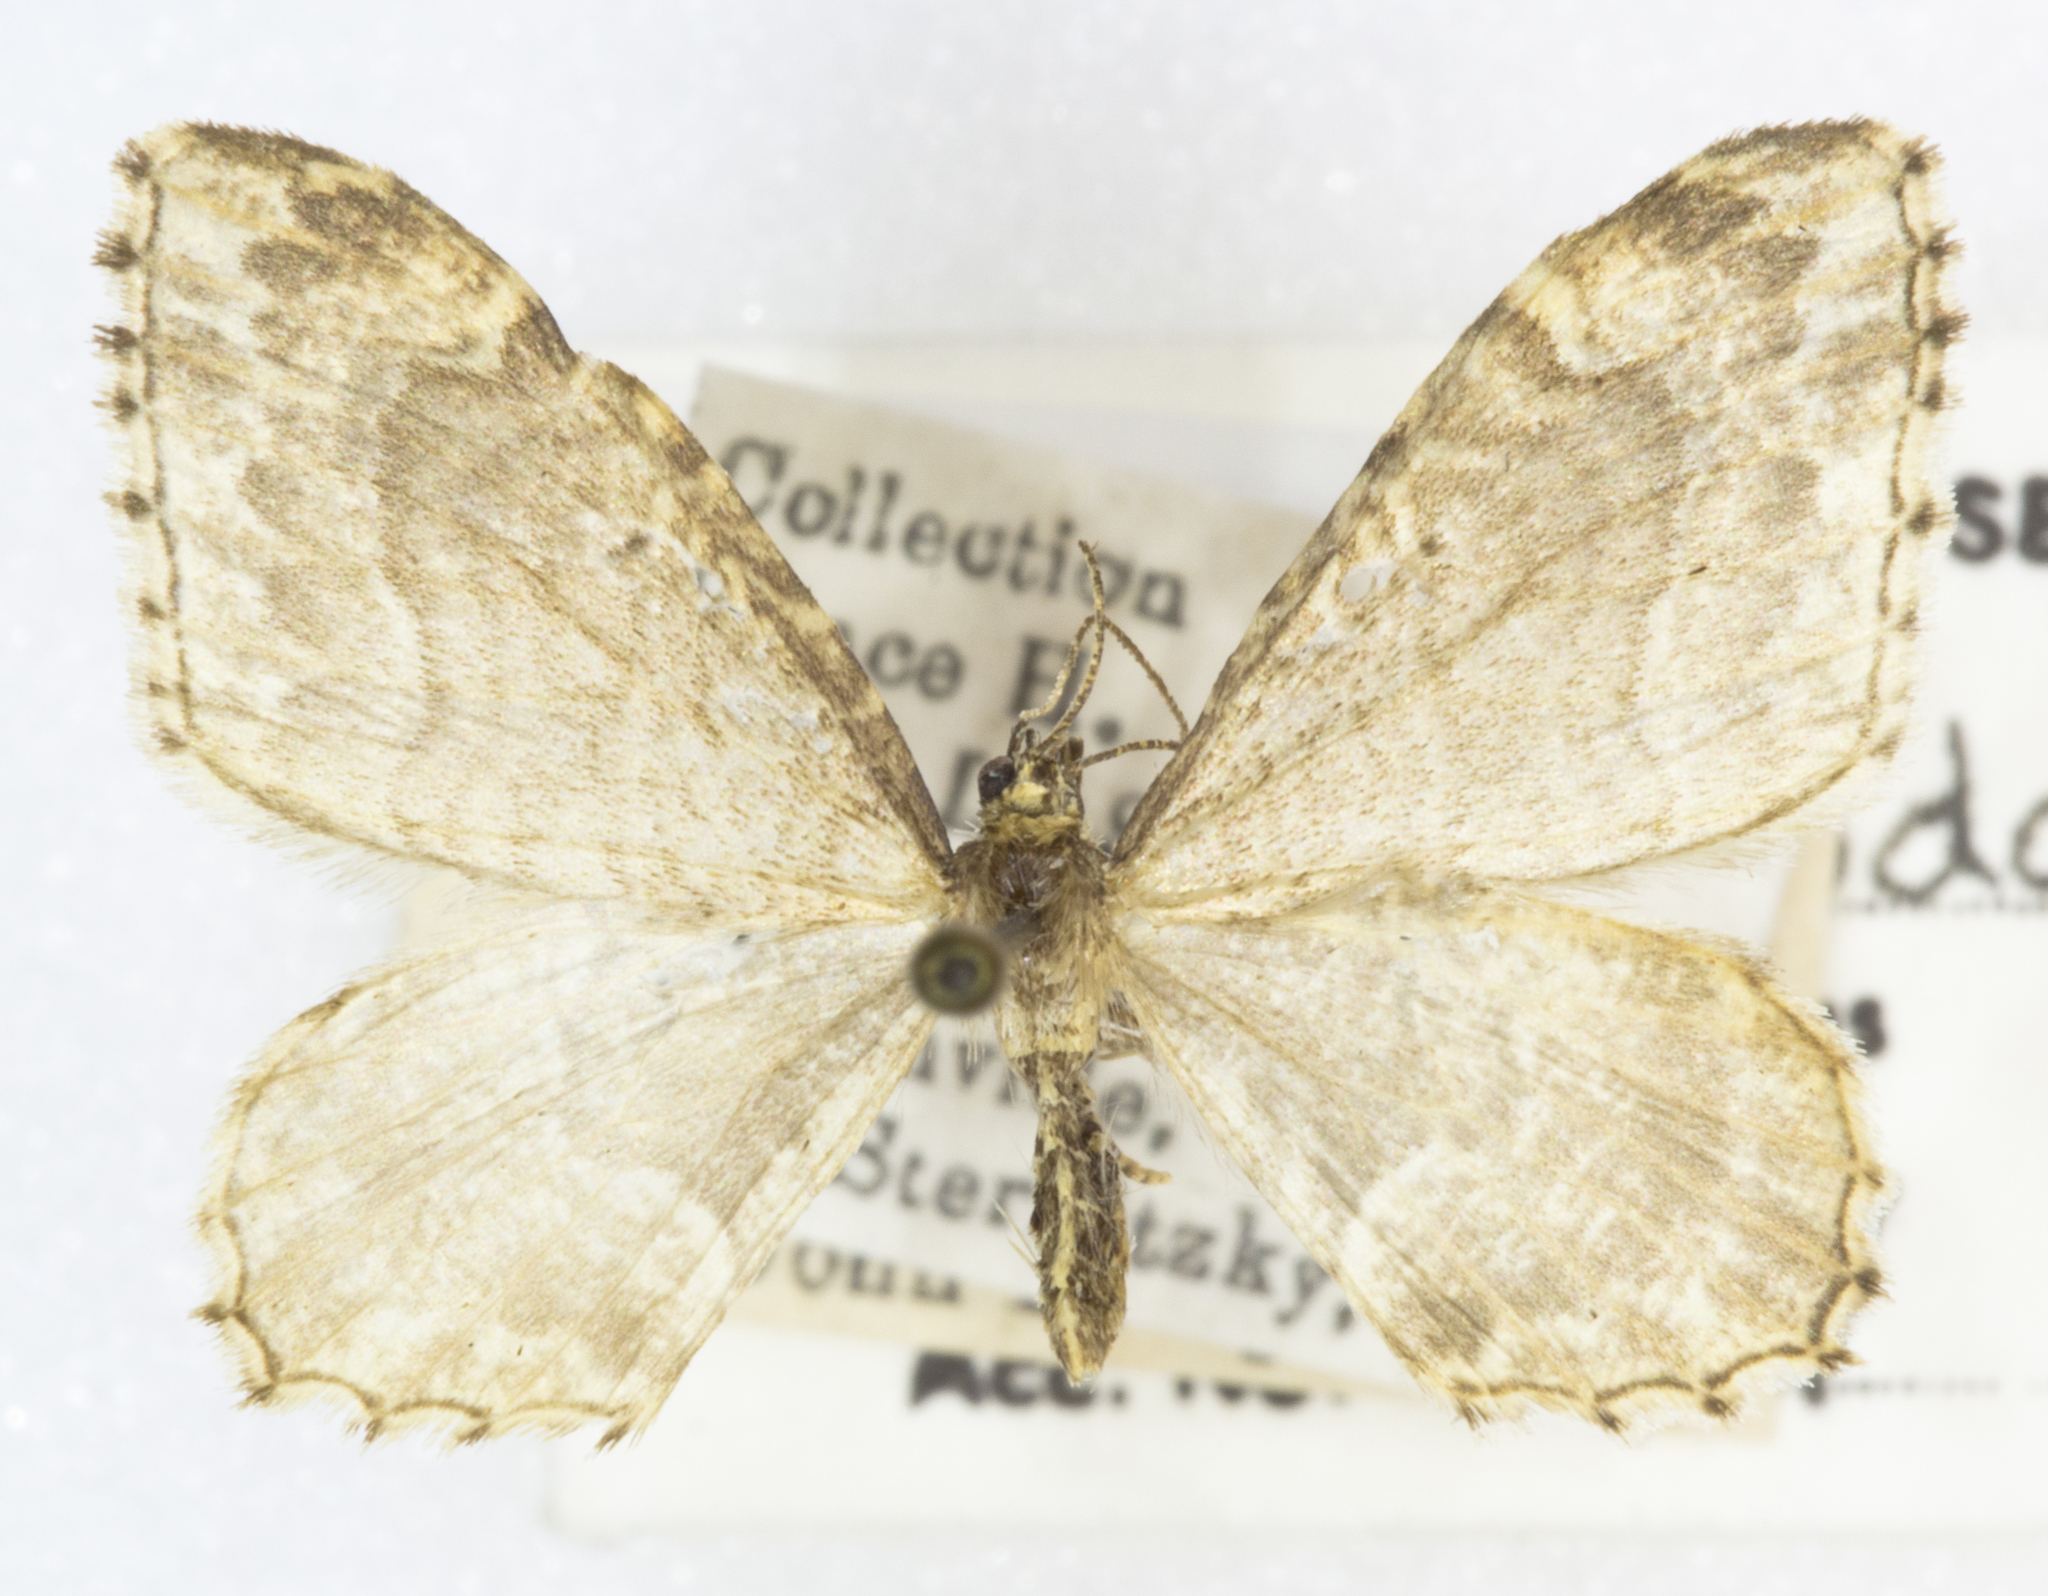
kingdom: Animalia
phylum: Arthropoda
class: Insecta
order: Lepidoptera
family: Geometridae
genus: Ceratodalia
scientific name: Ceratodalia gueneata
